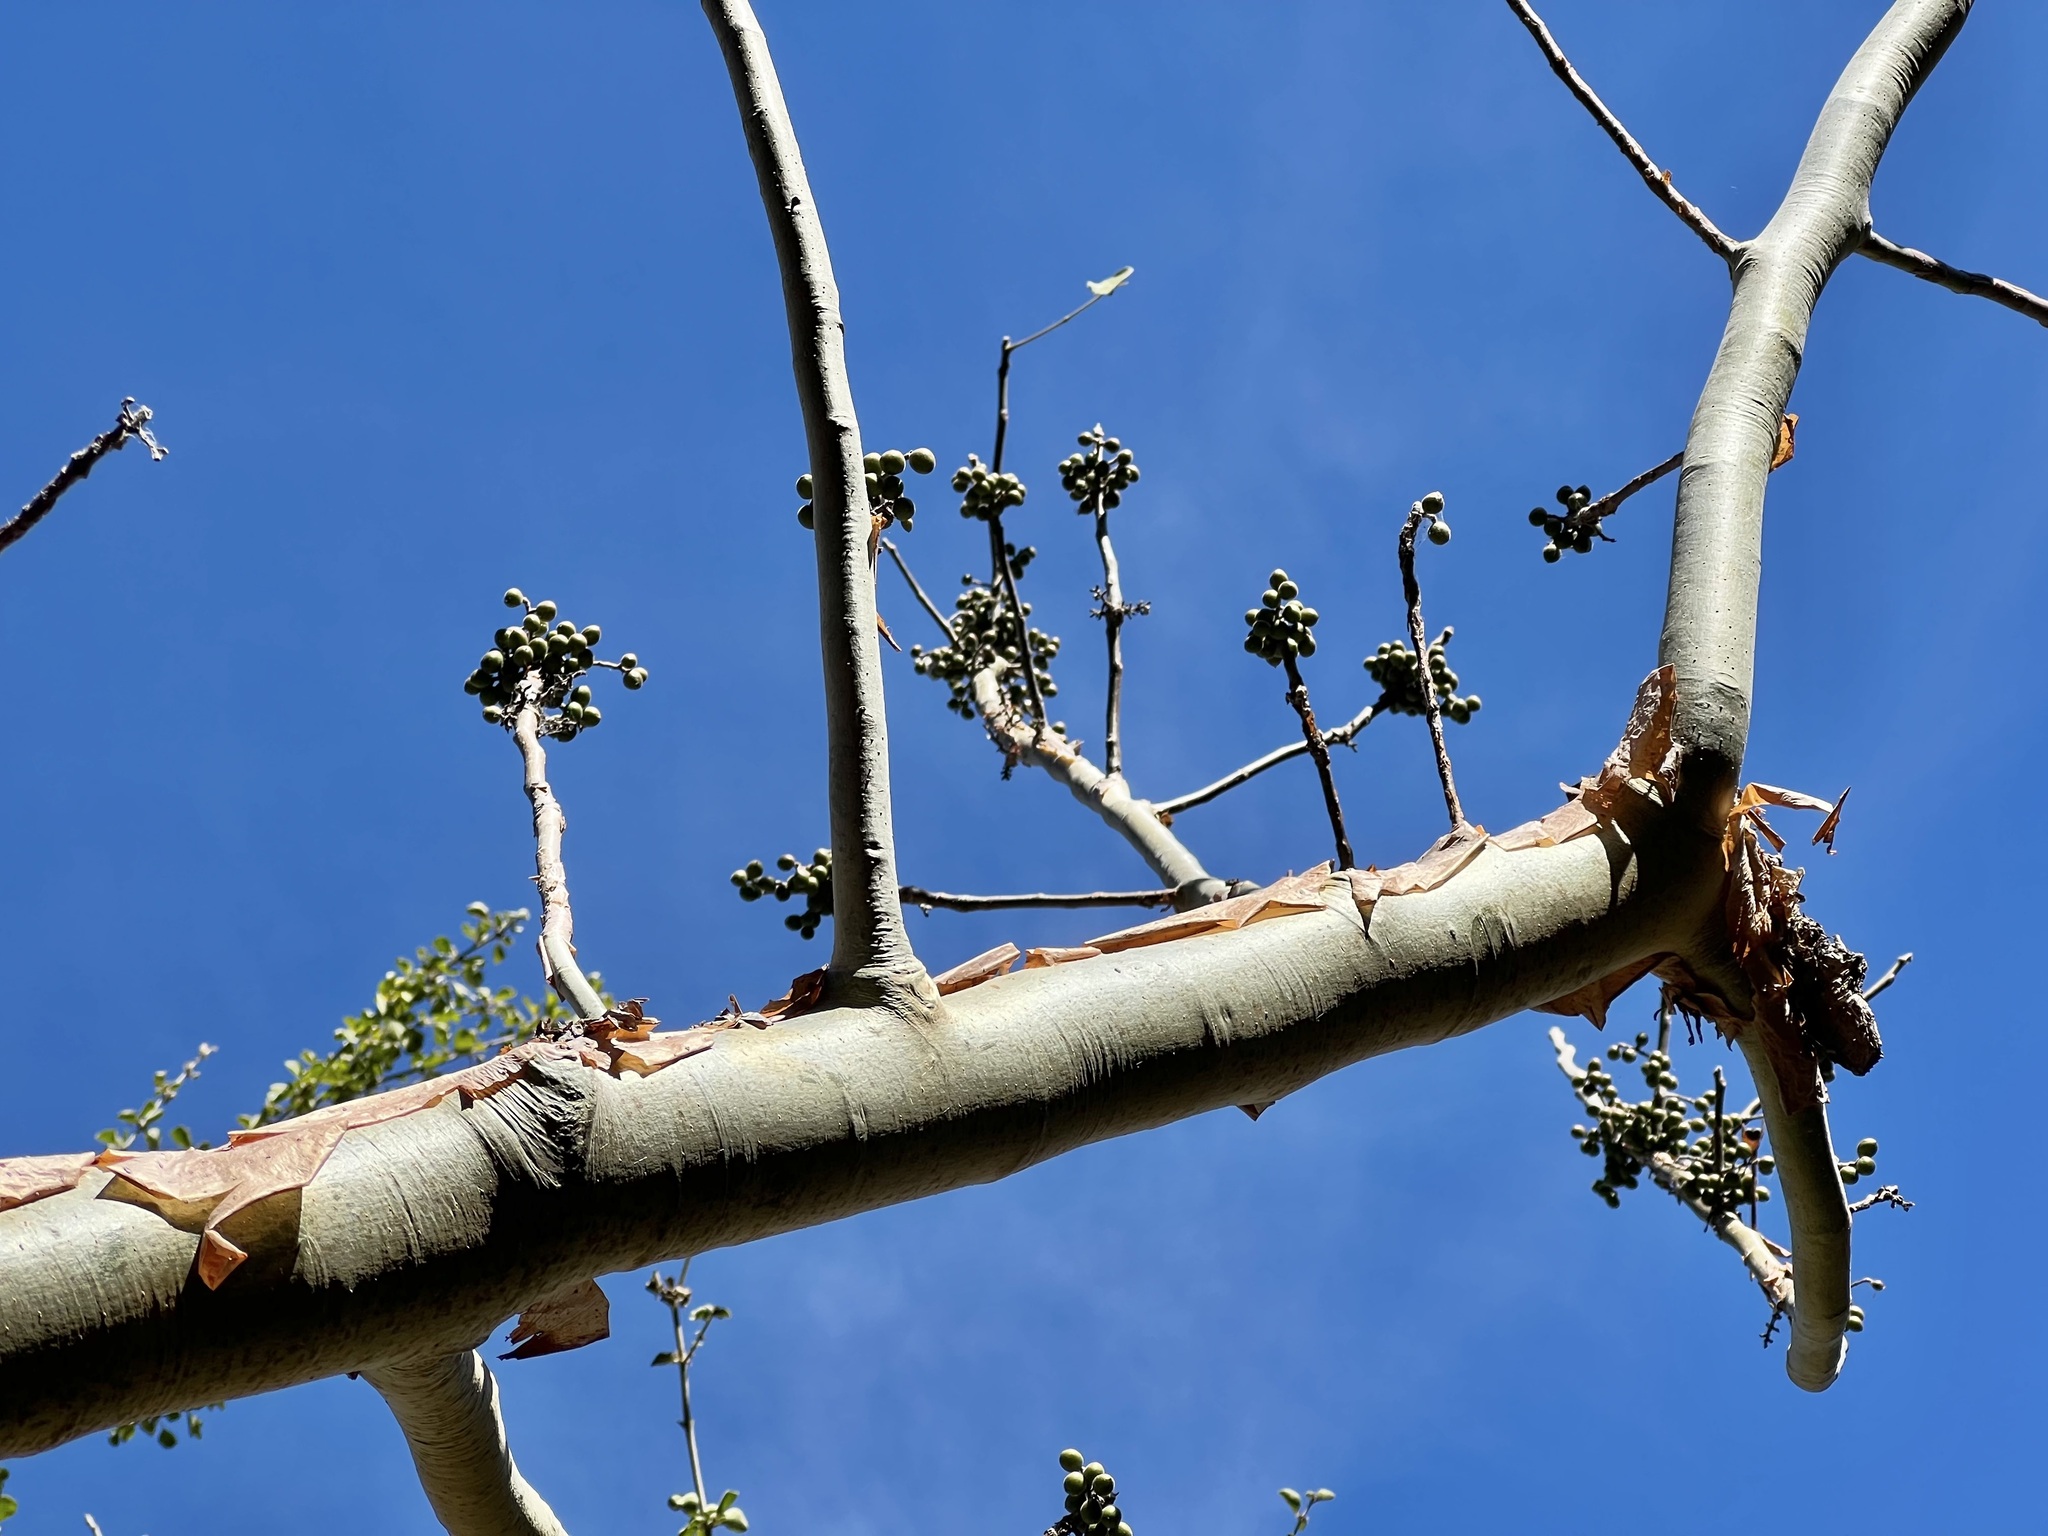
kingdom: Plantae
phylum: Tracheophyta
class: Magnoliopsida
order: Sapindales
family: Burseraceae
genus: Bursera
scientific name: Bursera grandifolia
